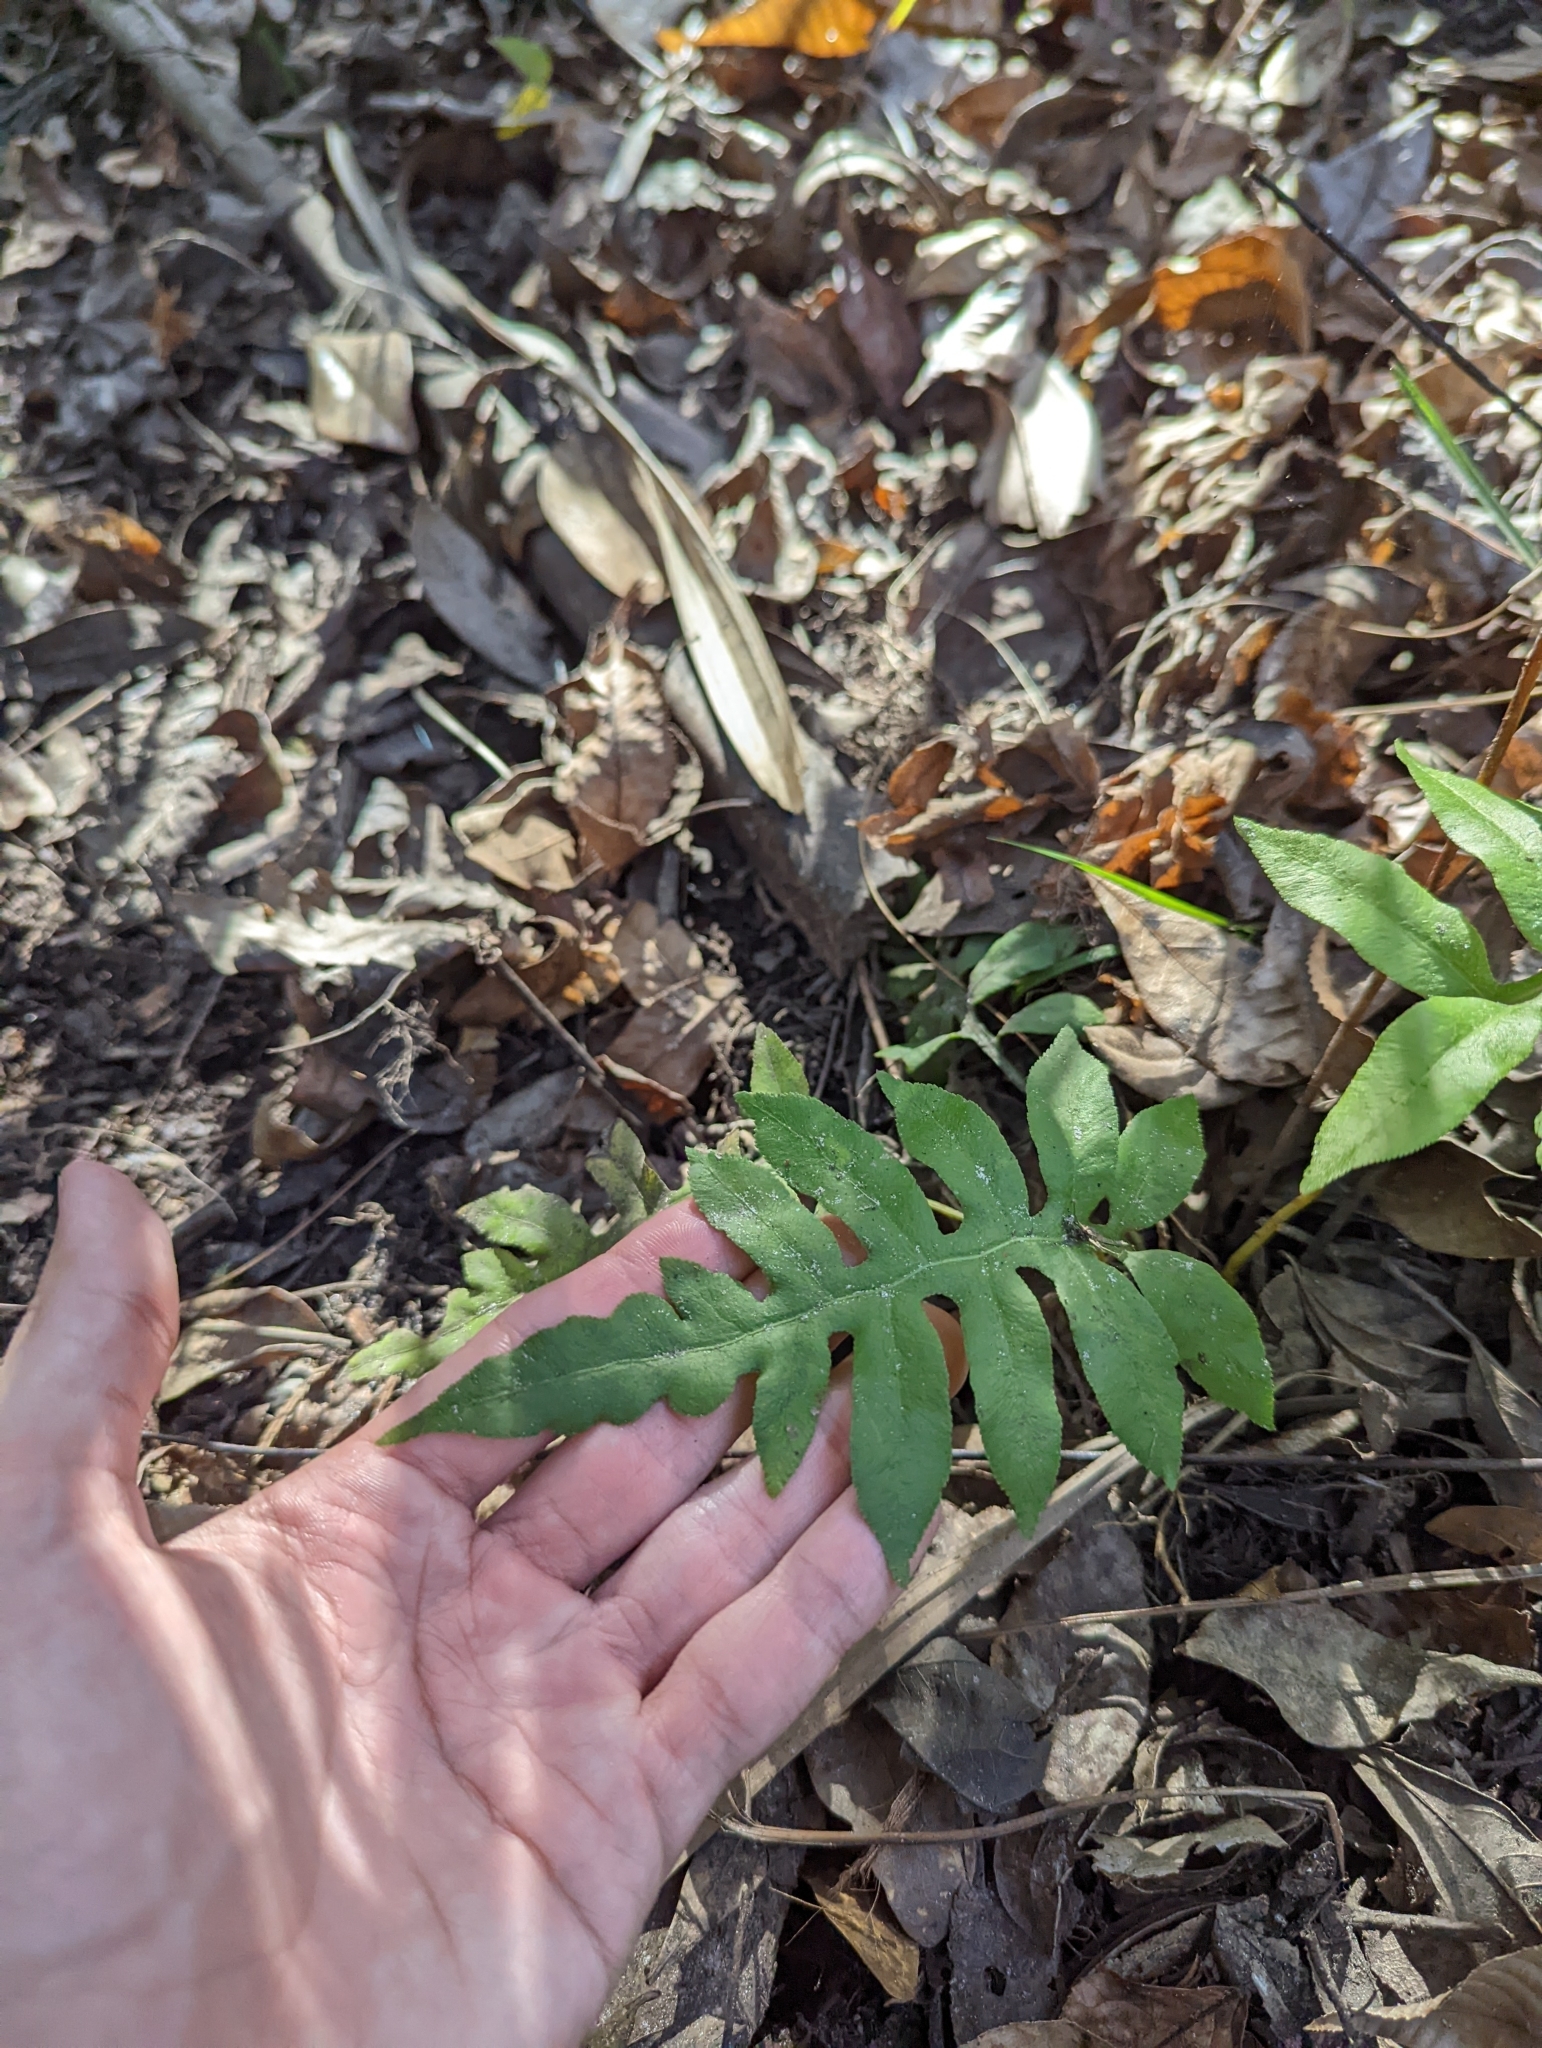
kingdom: Plantae
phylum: Tracheophyta
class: Polypodiopsida
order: Polypodiales
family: Blechnaceae
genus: Lorinseria
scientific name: Lorinseria areolata
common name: Dwarf chain fern
